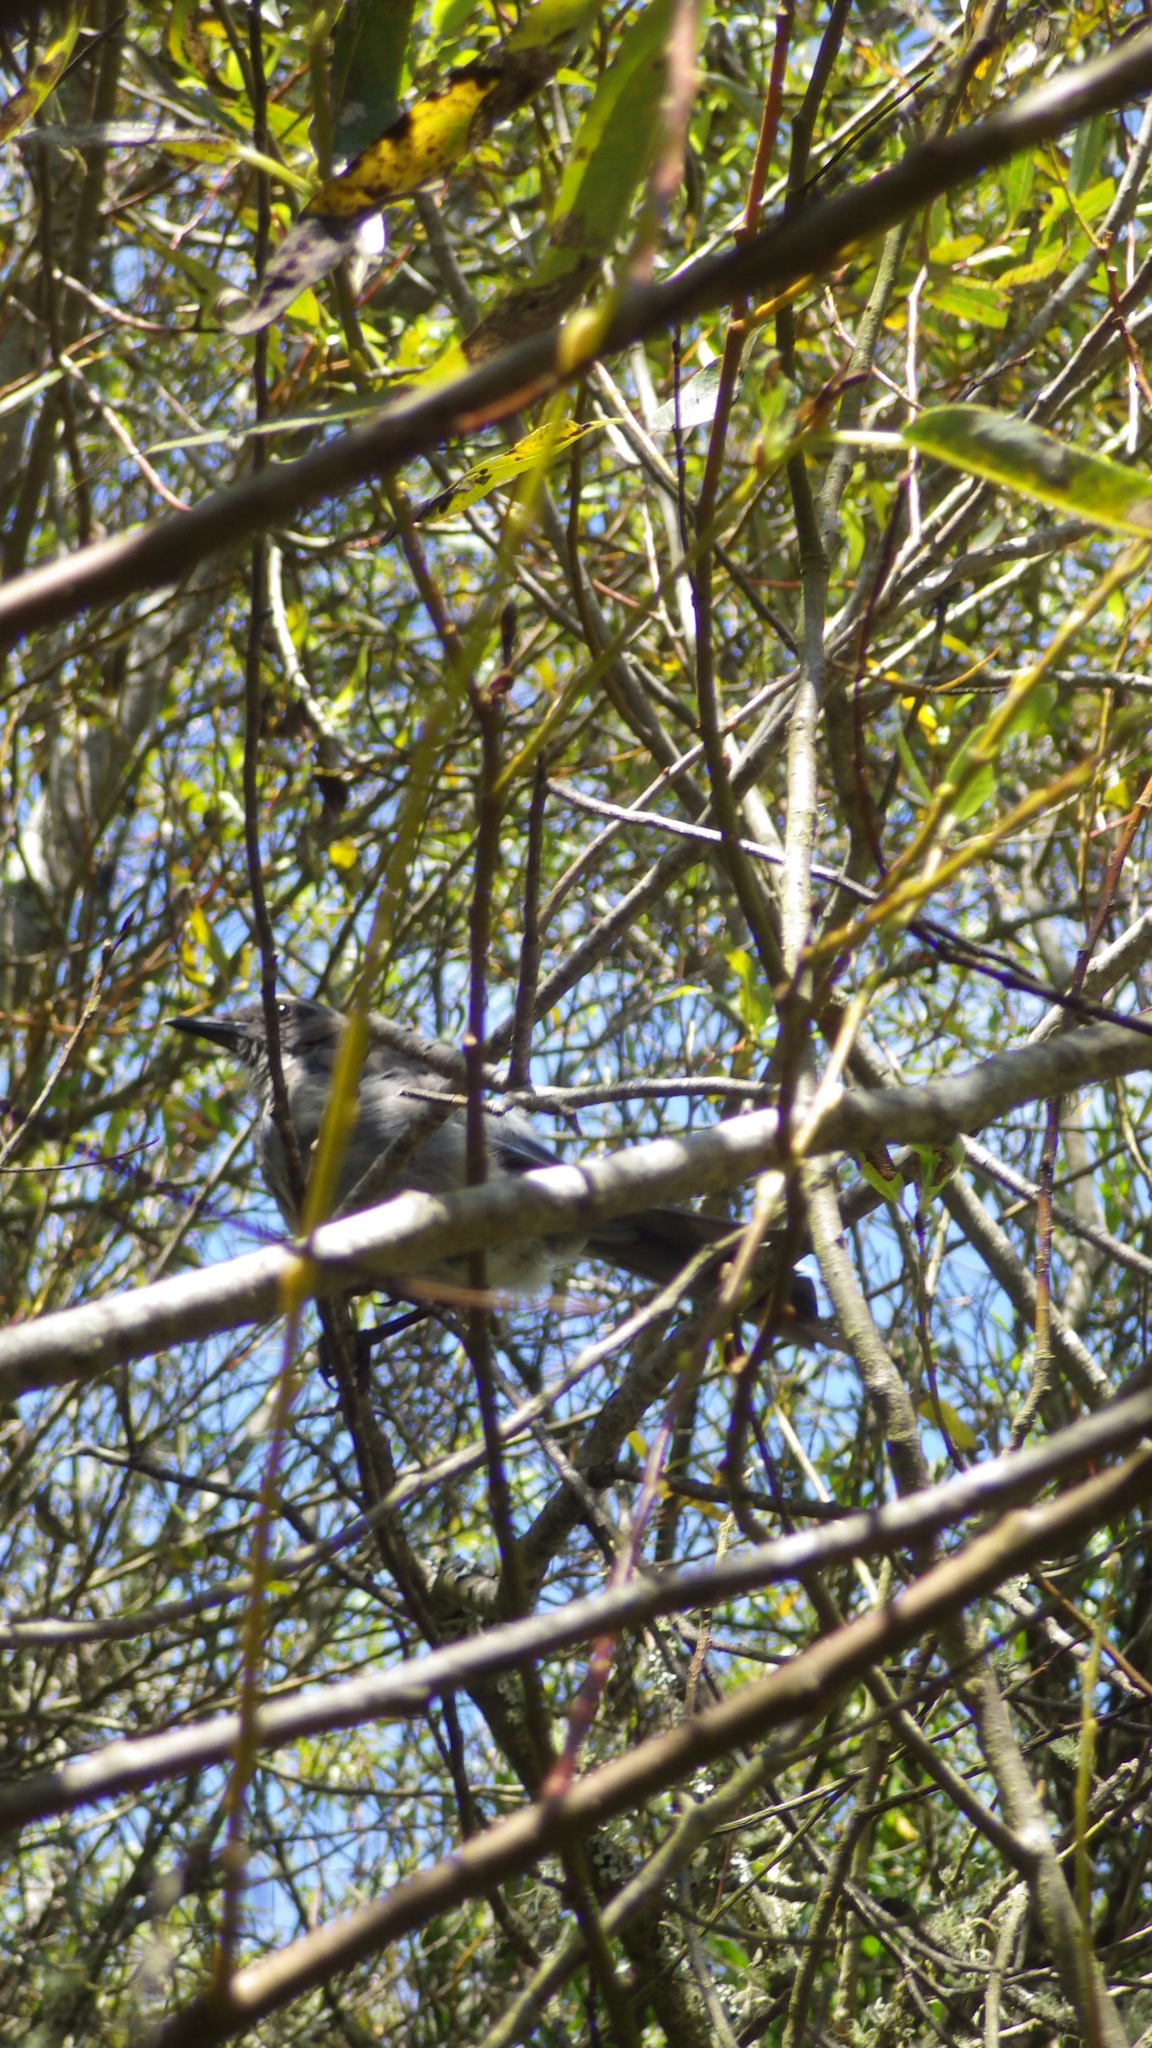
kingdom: Animalia
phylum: Chordata
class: Aves
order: Passeriformes
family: Corvidae
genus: Aphelocoma
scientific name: Aphelocoma californica
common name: California scrub-jay
